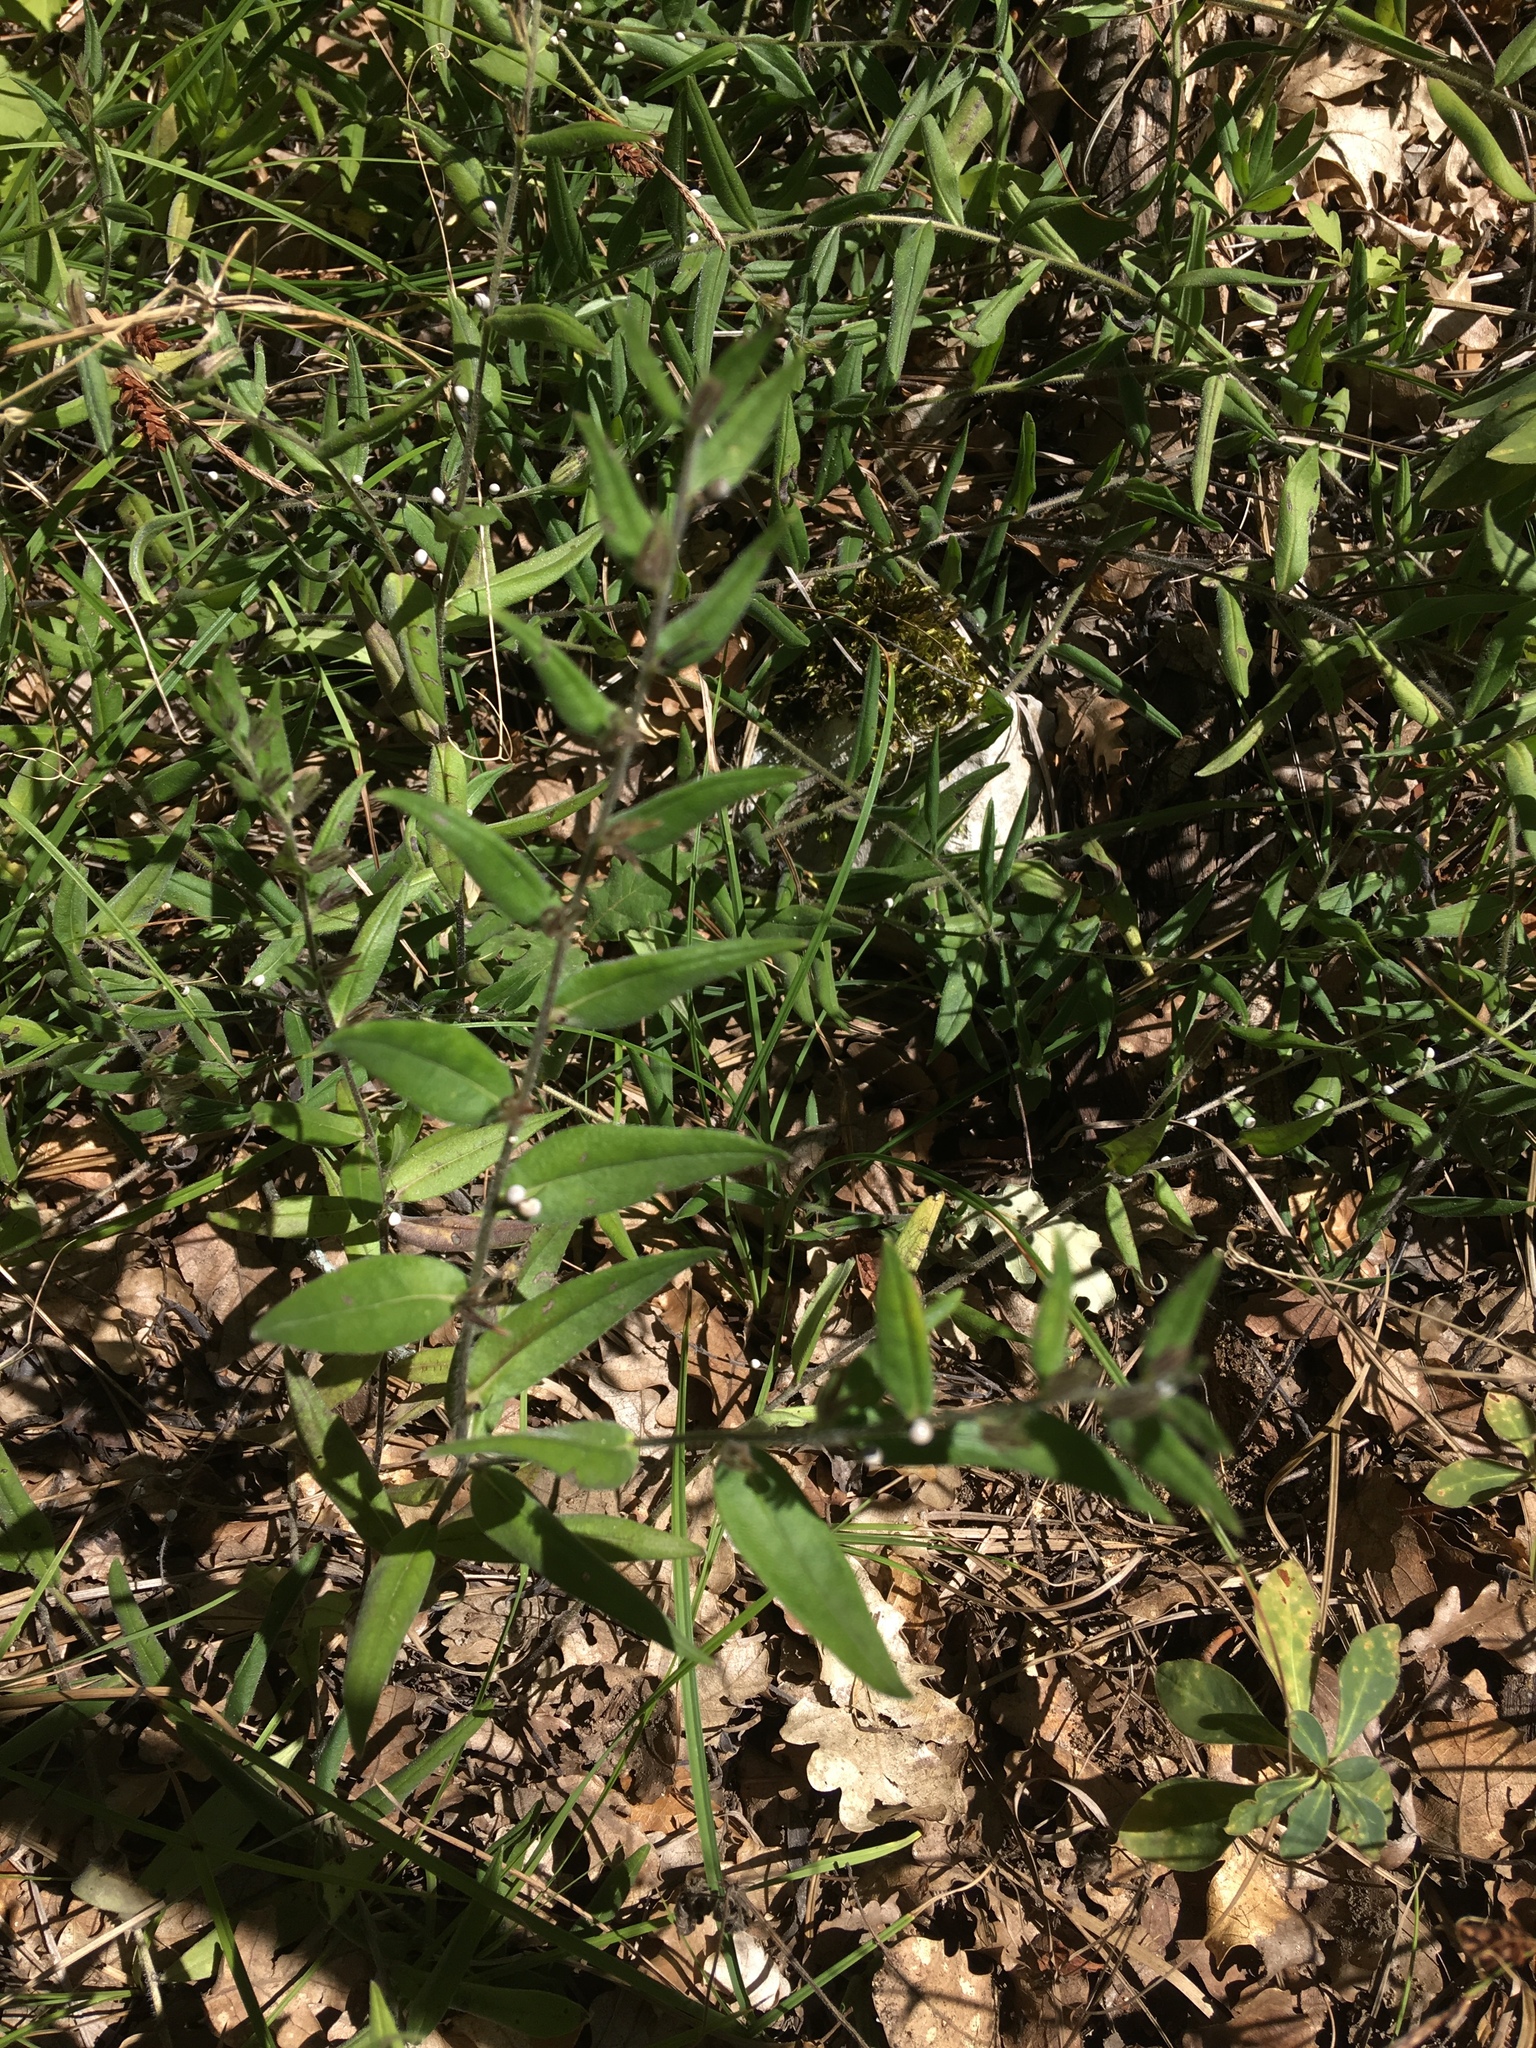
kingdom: Plantae
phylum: Tracheophyta
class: Magnoliopsida
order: Boraginales
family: Boraginaceae
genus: Aegonychon
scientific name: Aegonychon purpurocaeruleum
